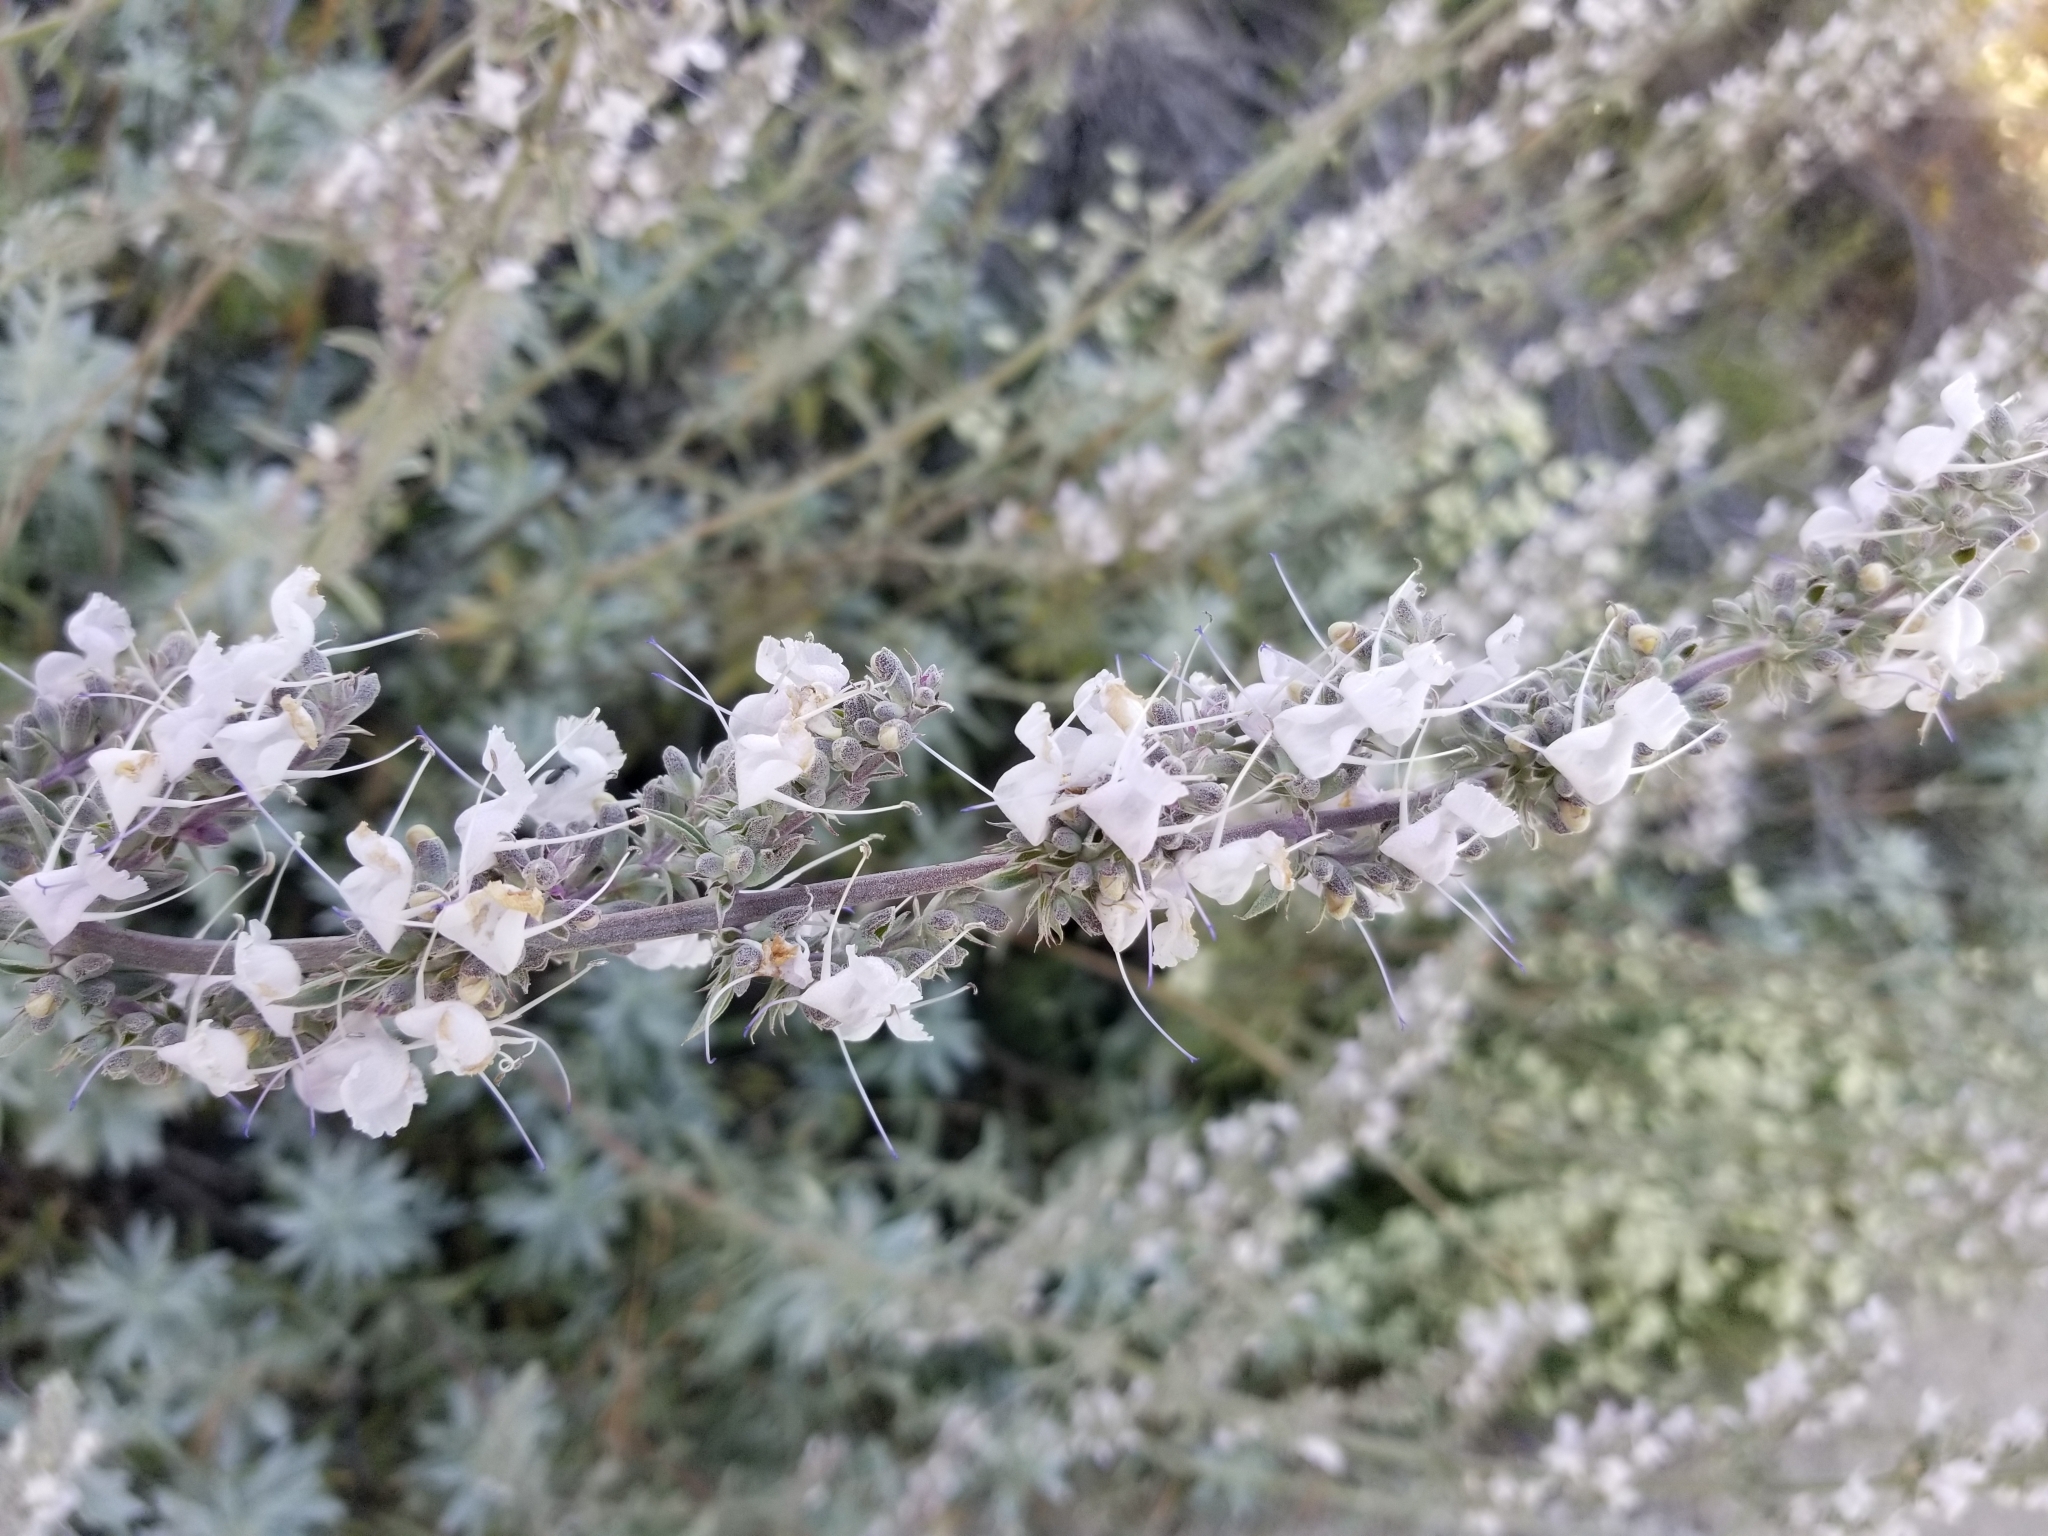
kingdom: Plantae
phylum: Tracheophyta
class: Magnoliopsida
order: Lamiales
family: Lamiaceae
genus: Salvia
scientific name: Salvia apiana
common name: White sage
